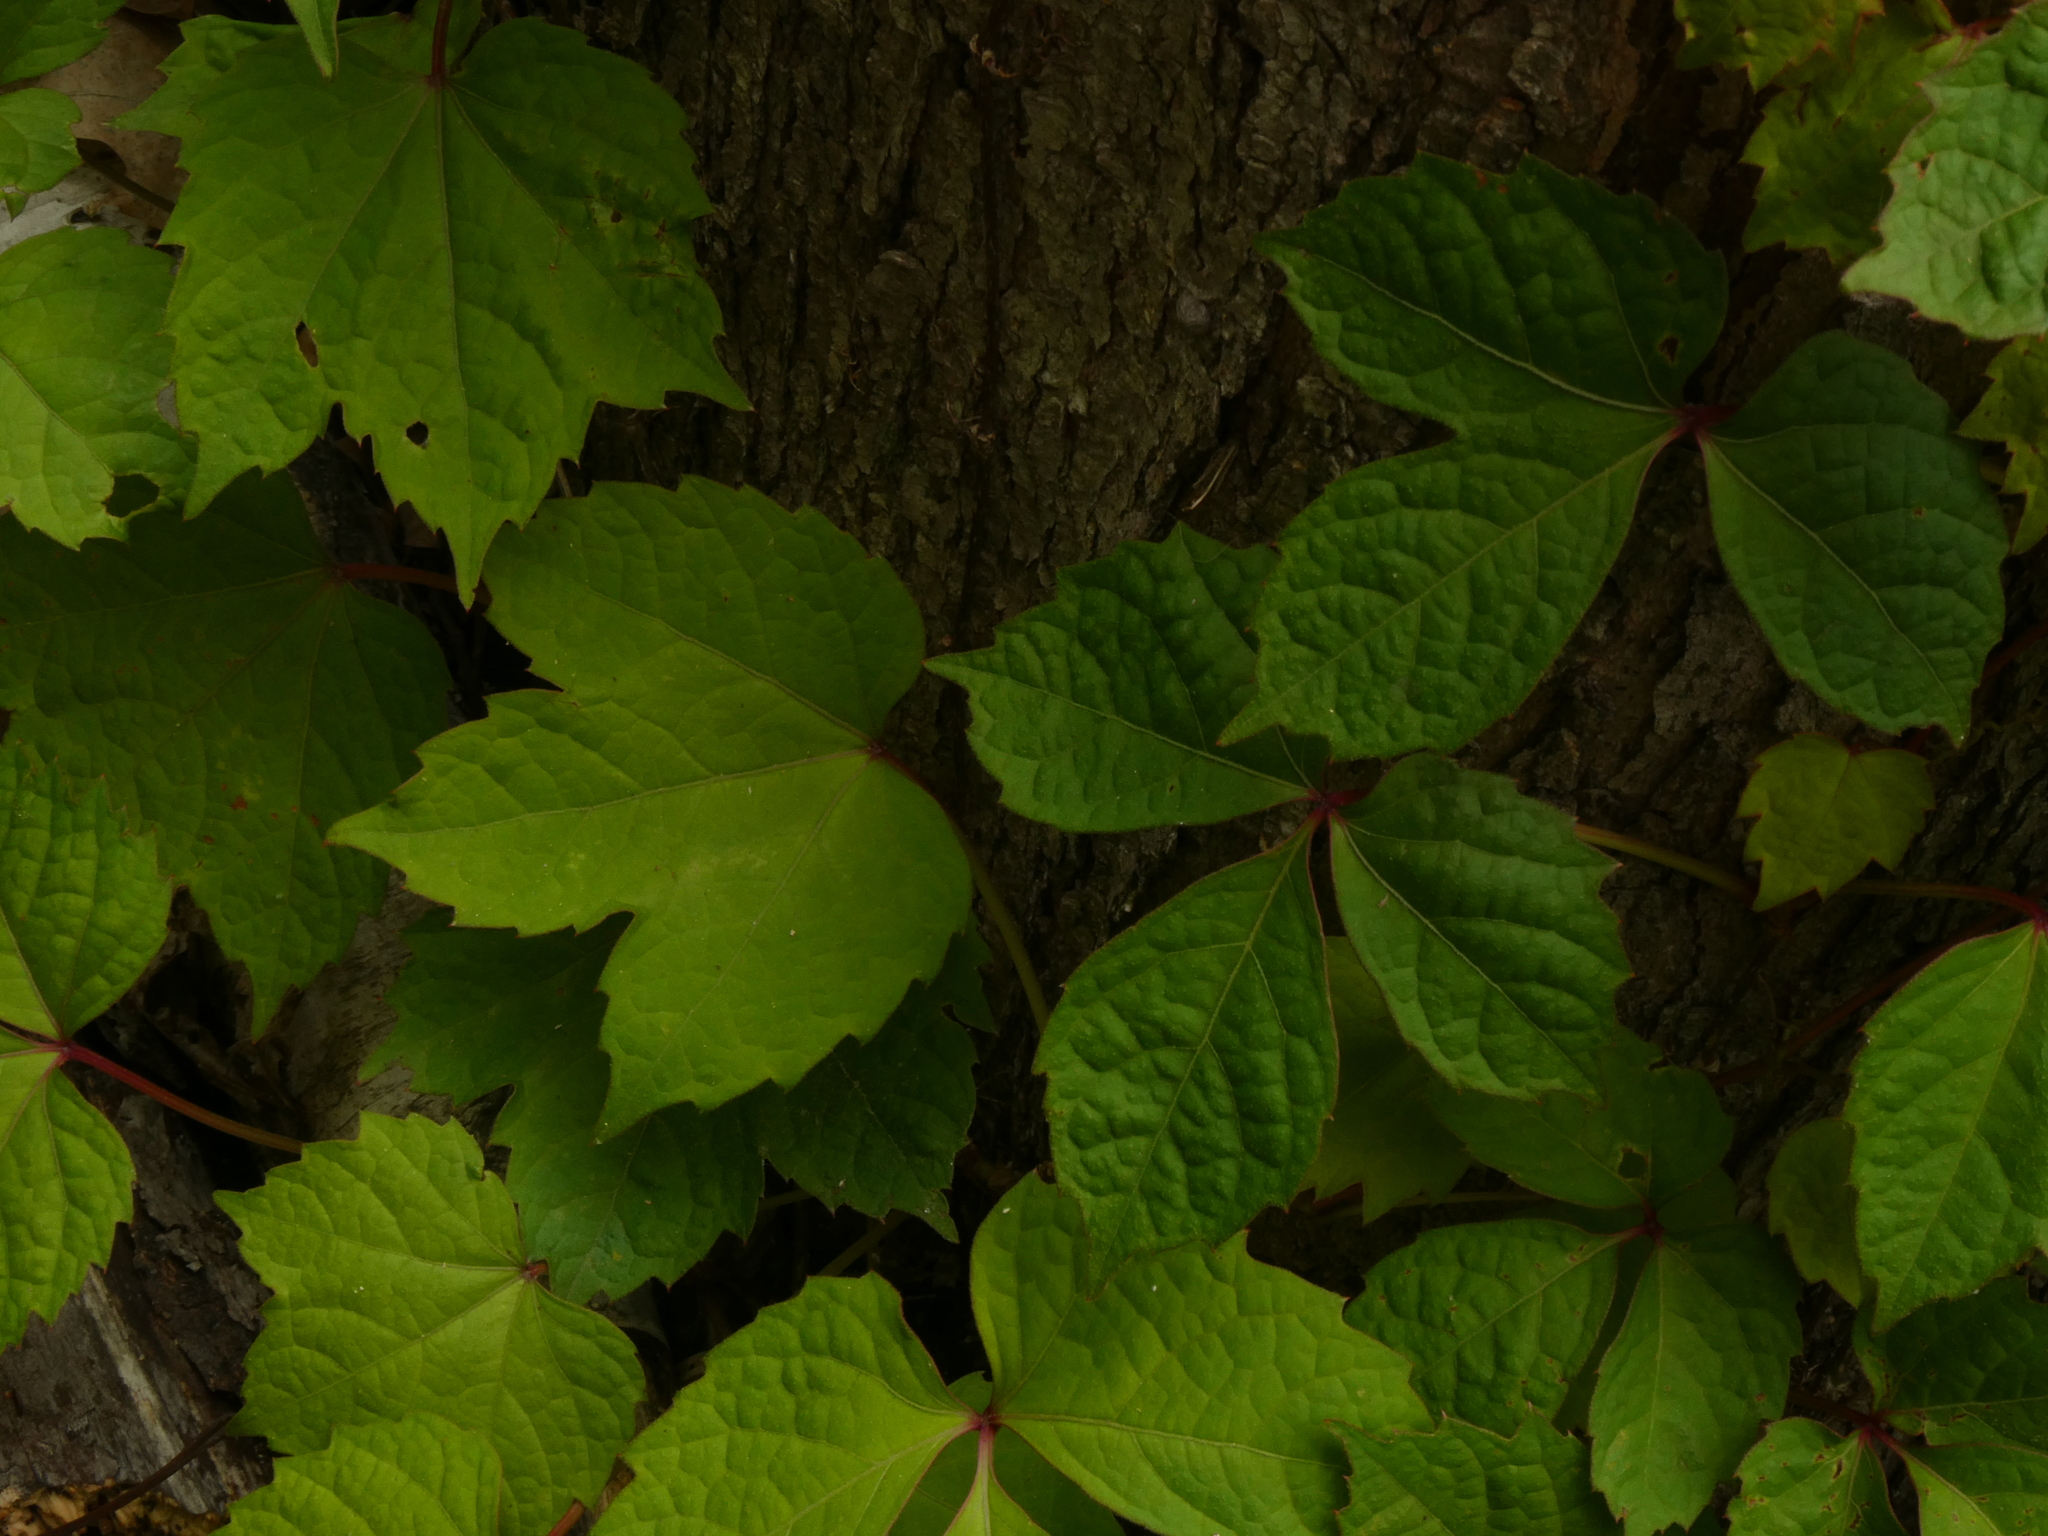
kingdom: Plantae
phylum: Tracheophyta
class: Magnoliopsida
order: Vitales
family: Vitaceae
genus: Parthenocissus
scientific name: Parthenocissus tricuspidata
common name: Boston ivy
